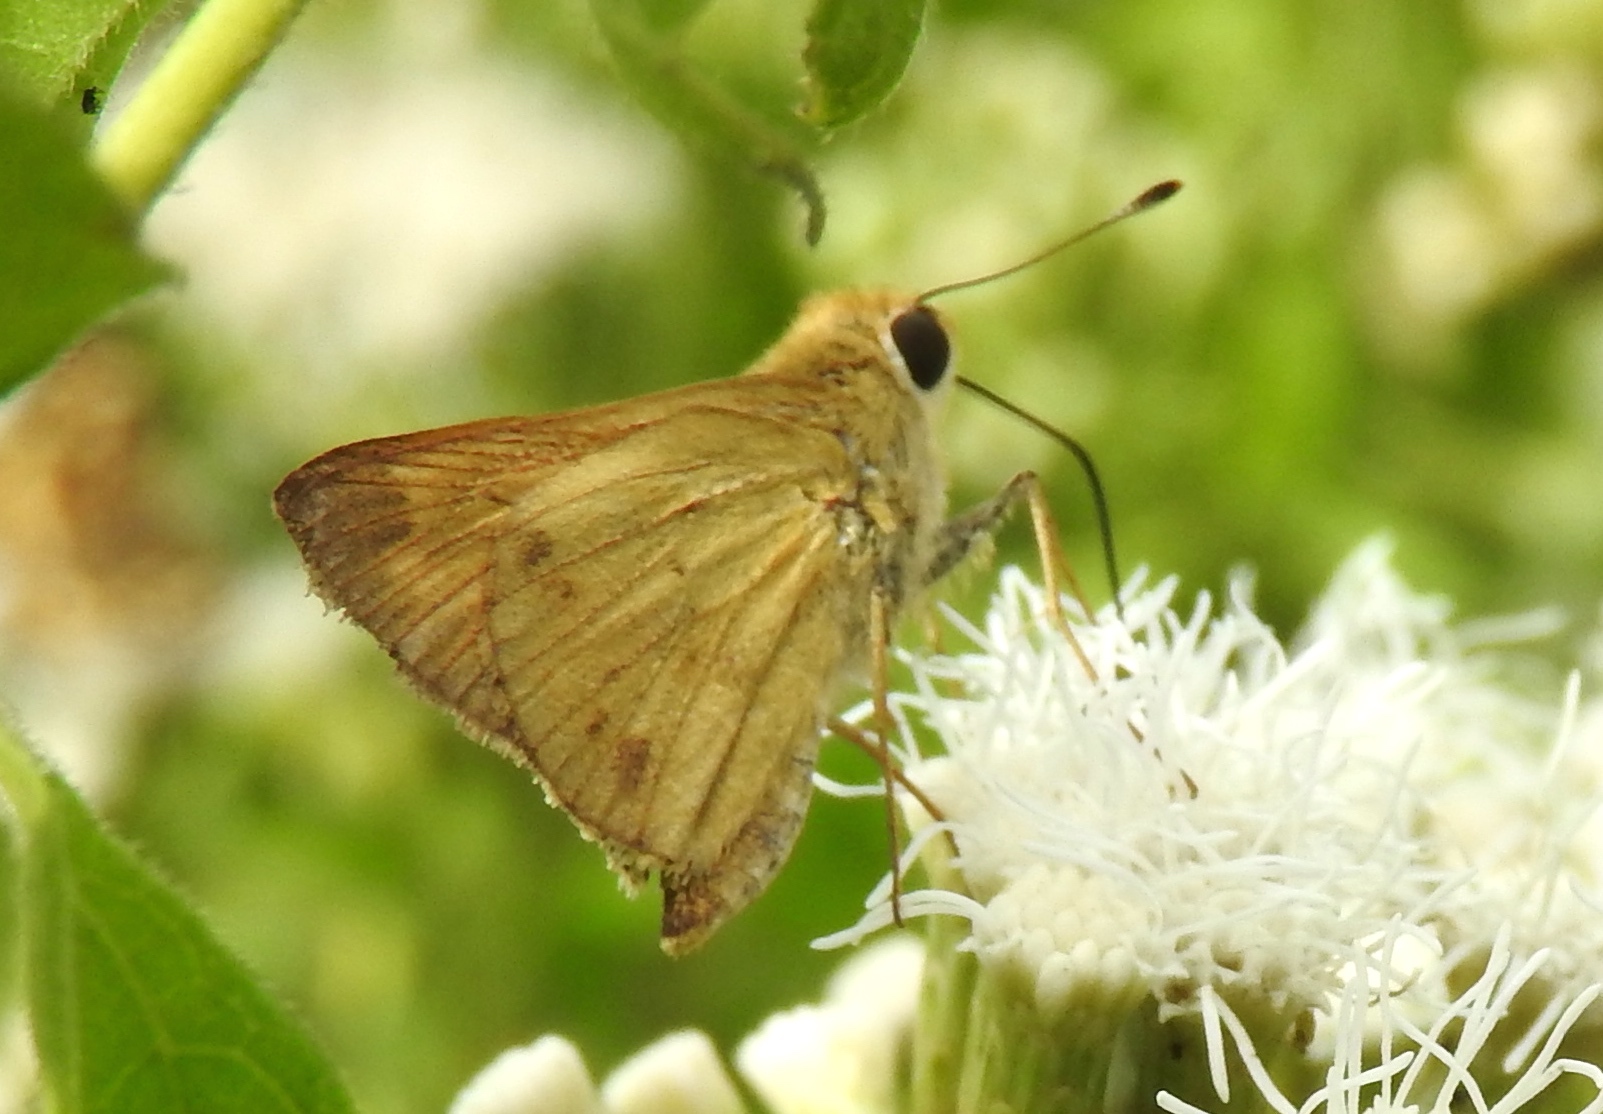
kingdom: Animalia
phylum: Arthropoda
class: Insecta
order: Lepidoptera
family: Hesperiidae
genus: Polites
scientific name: Polites vibex
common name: Whirlabout
